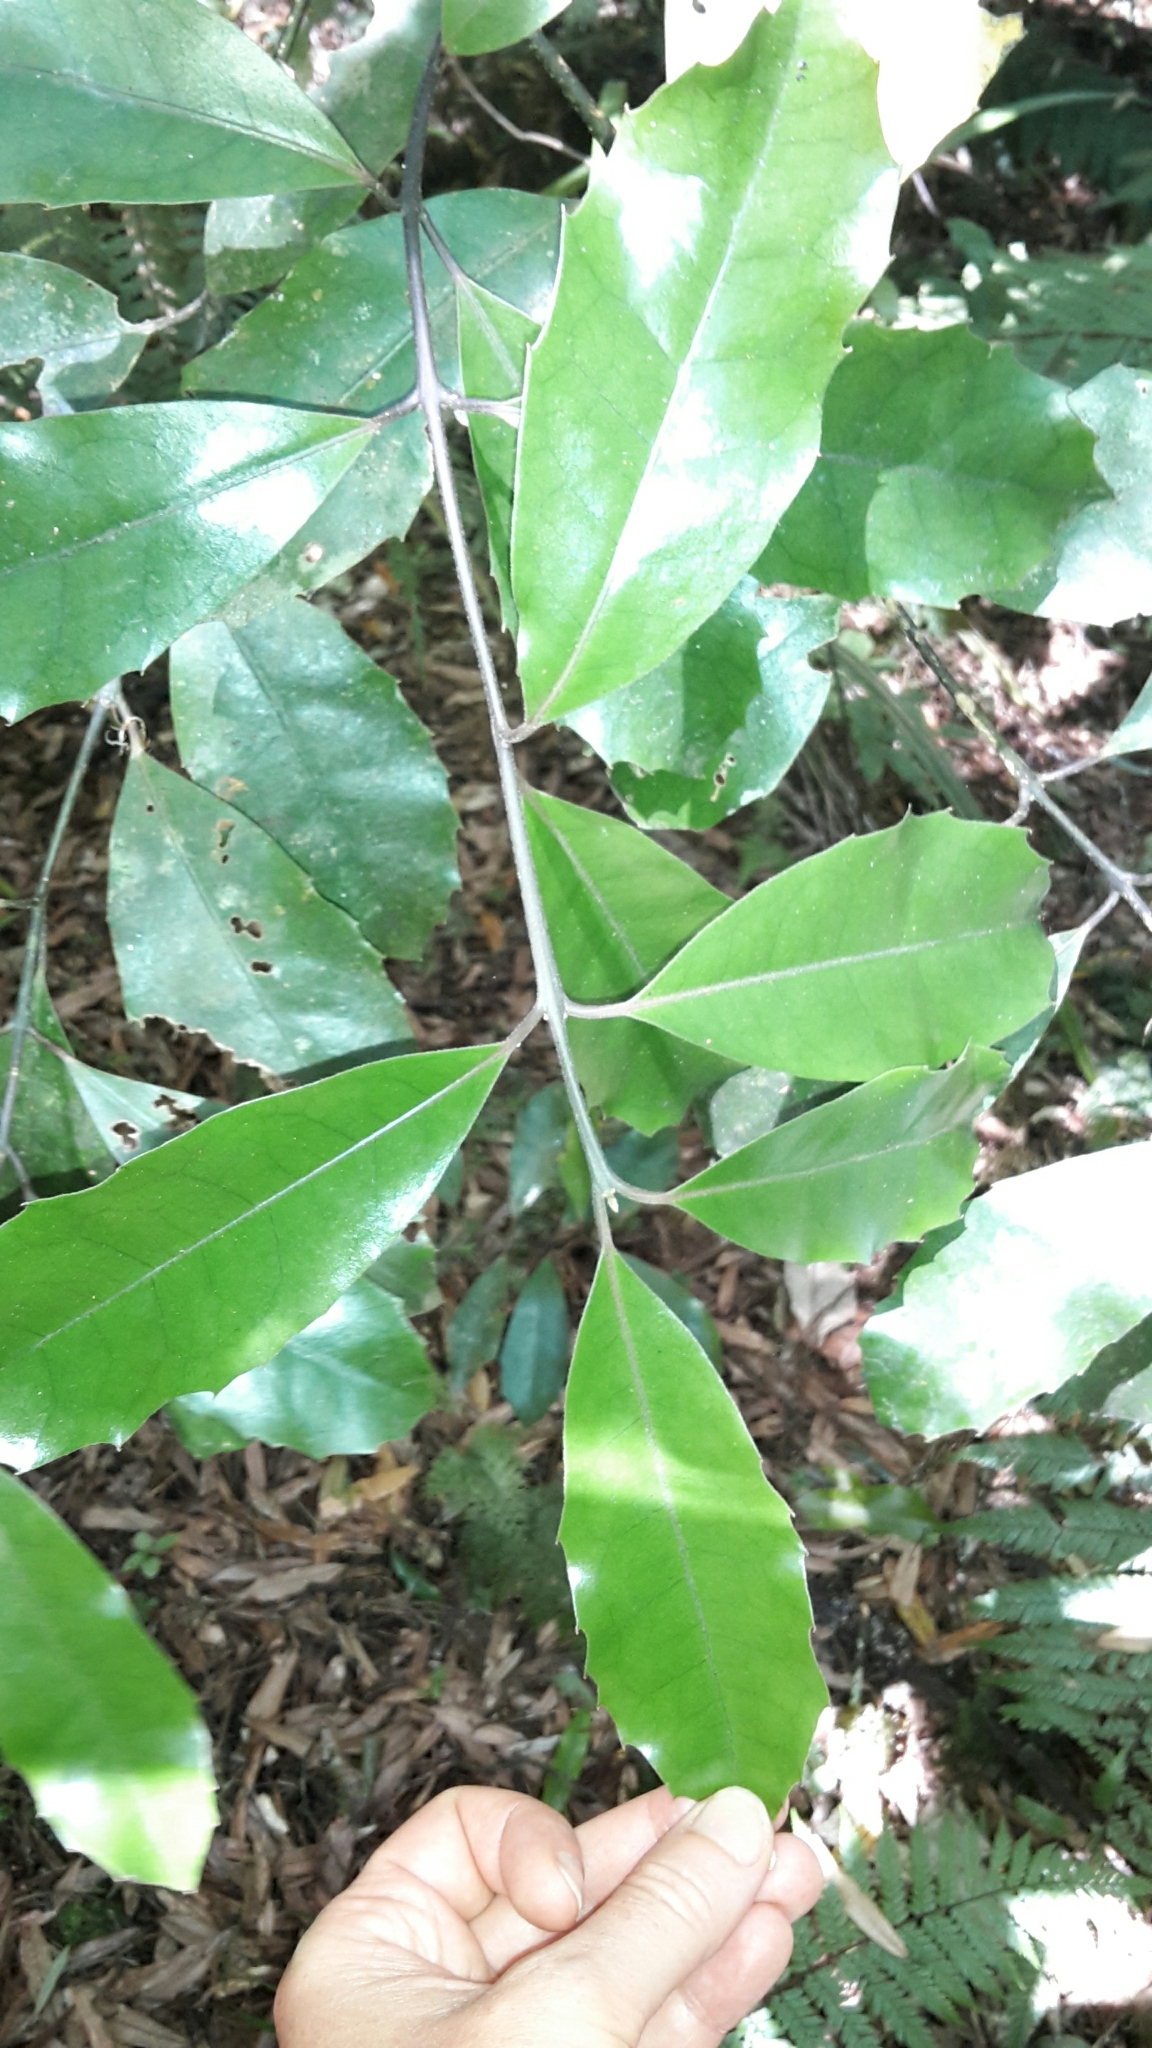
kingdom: Plantae
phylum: Tracheophyta
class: Magnoliopsida
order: Laurales
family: Monimiaceae
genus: Hedycarya
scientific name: Hedycarya arborea
